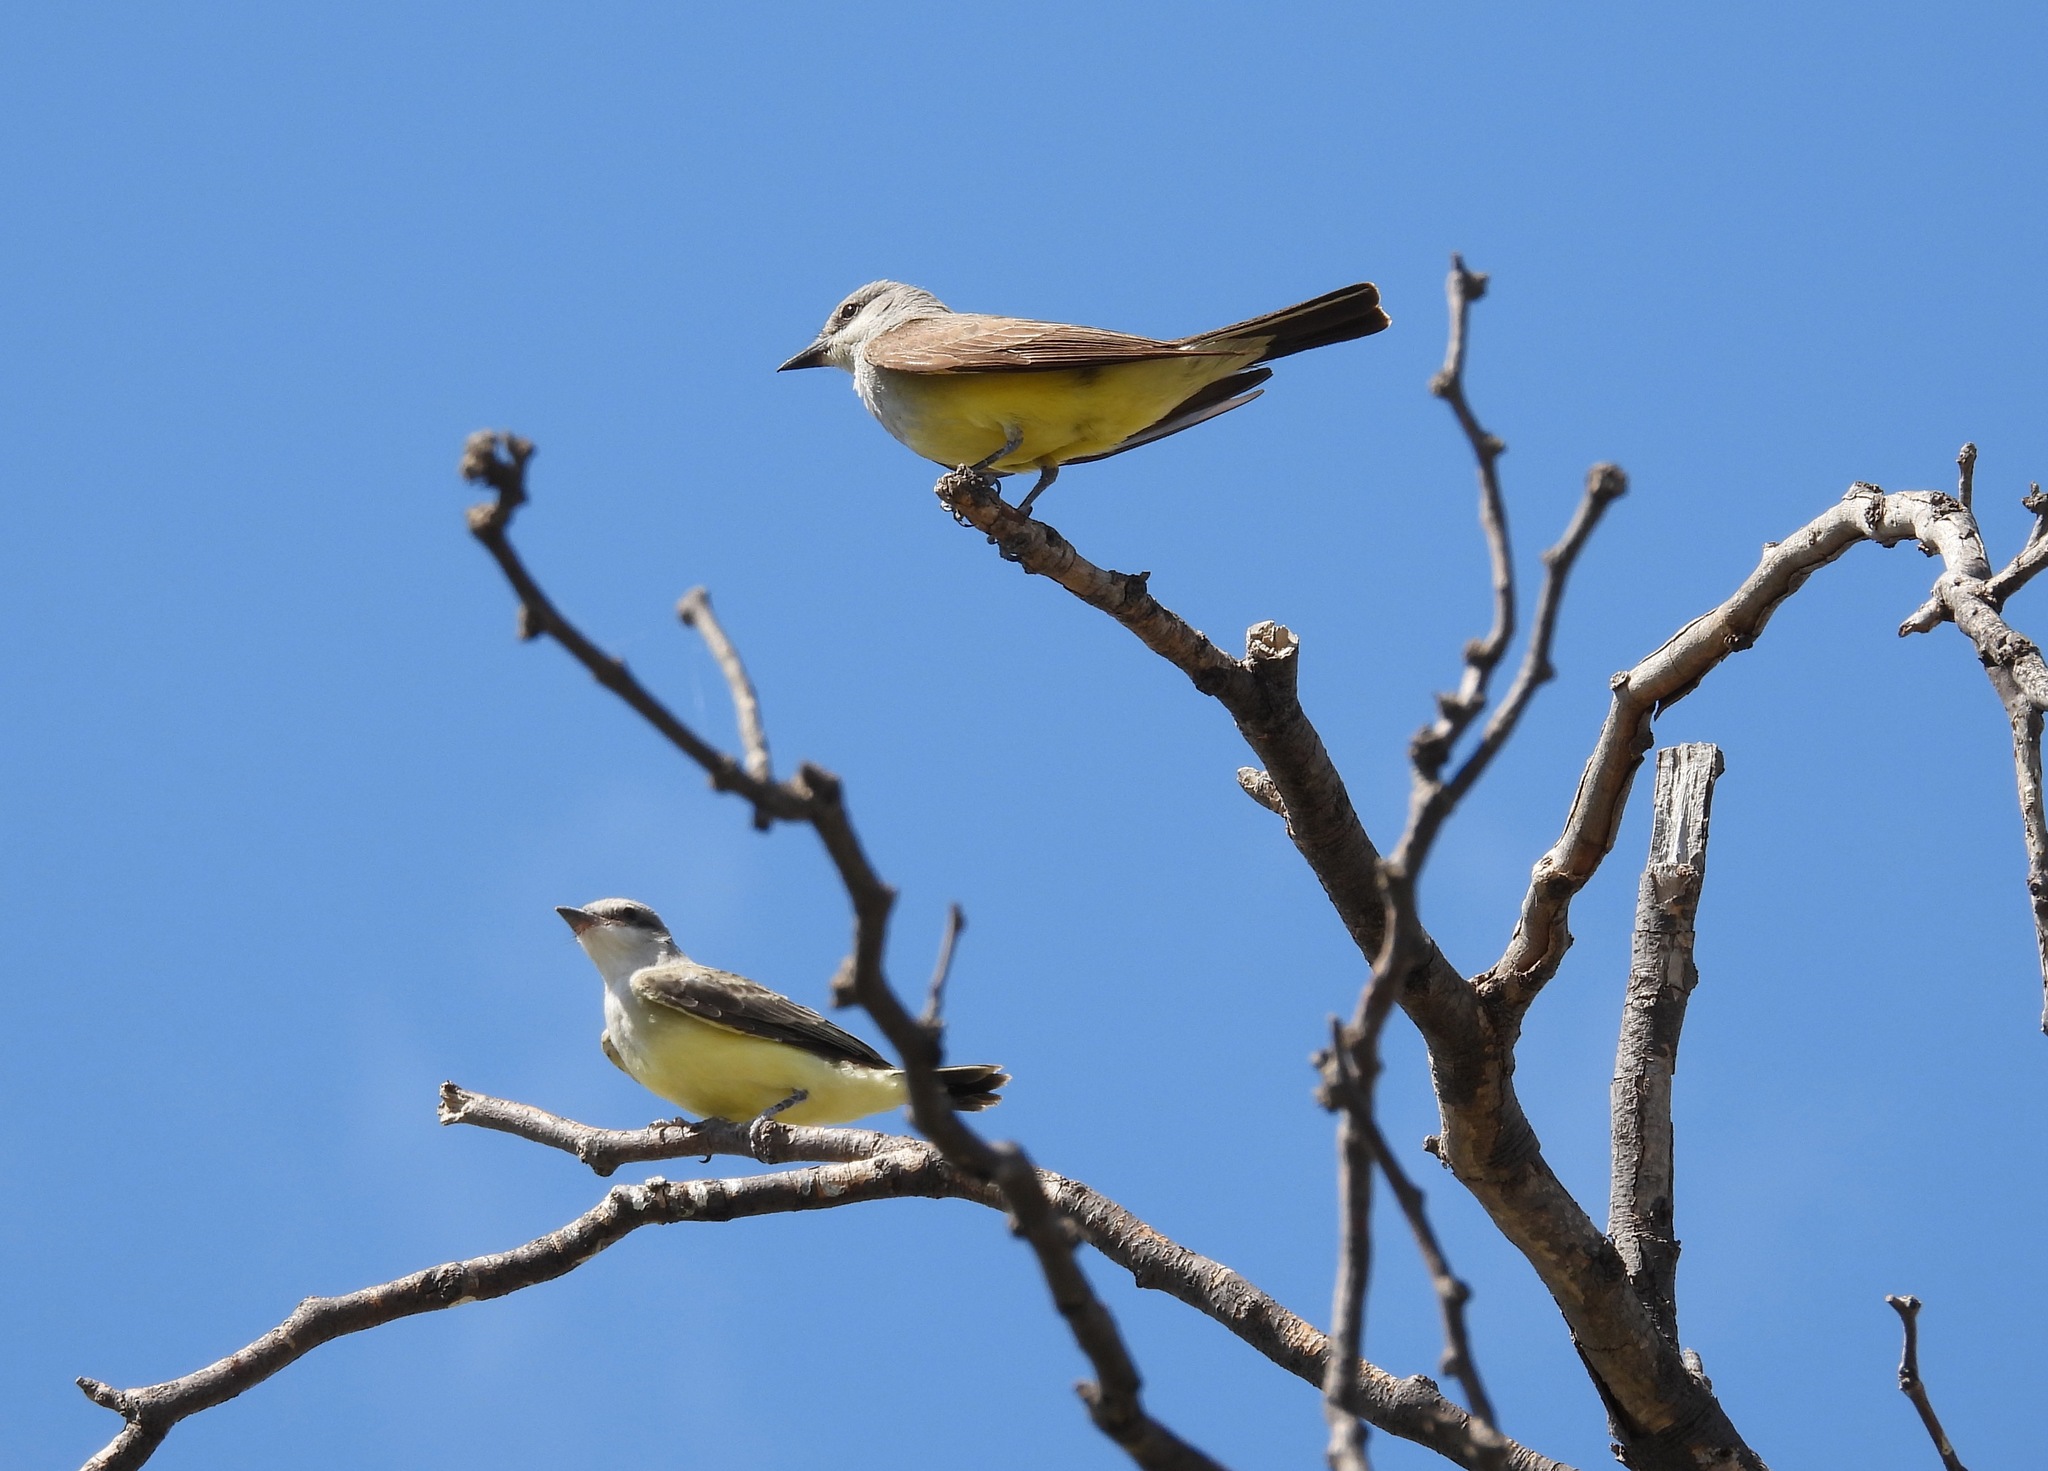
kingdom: Animalia
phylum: Chordata
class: Aves
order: Passeriformes
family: Tyrannidae
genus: Tyrannus
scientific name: Tyrannus verticalis
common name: Western kingbird
